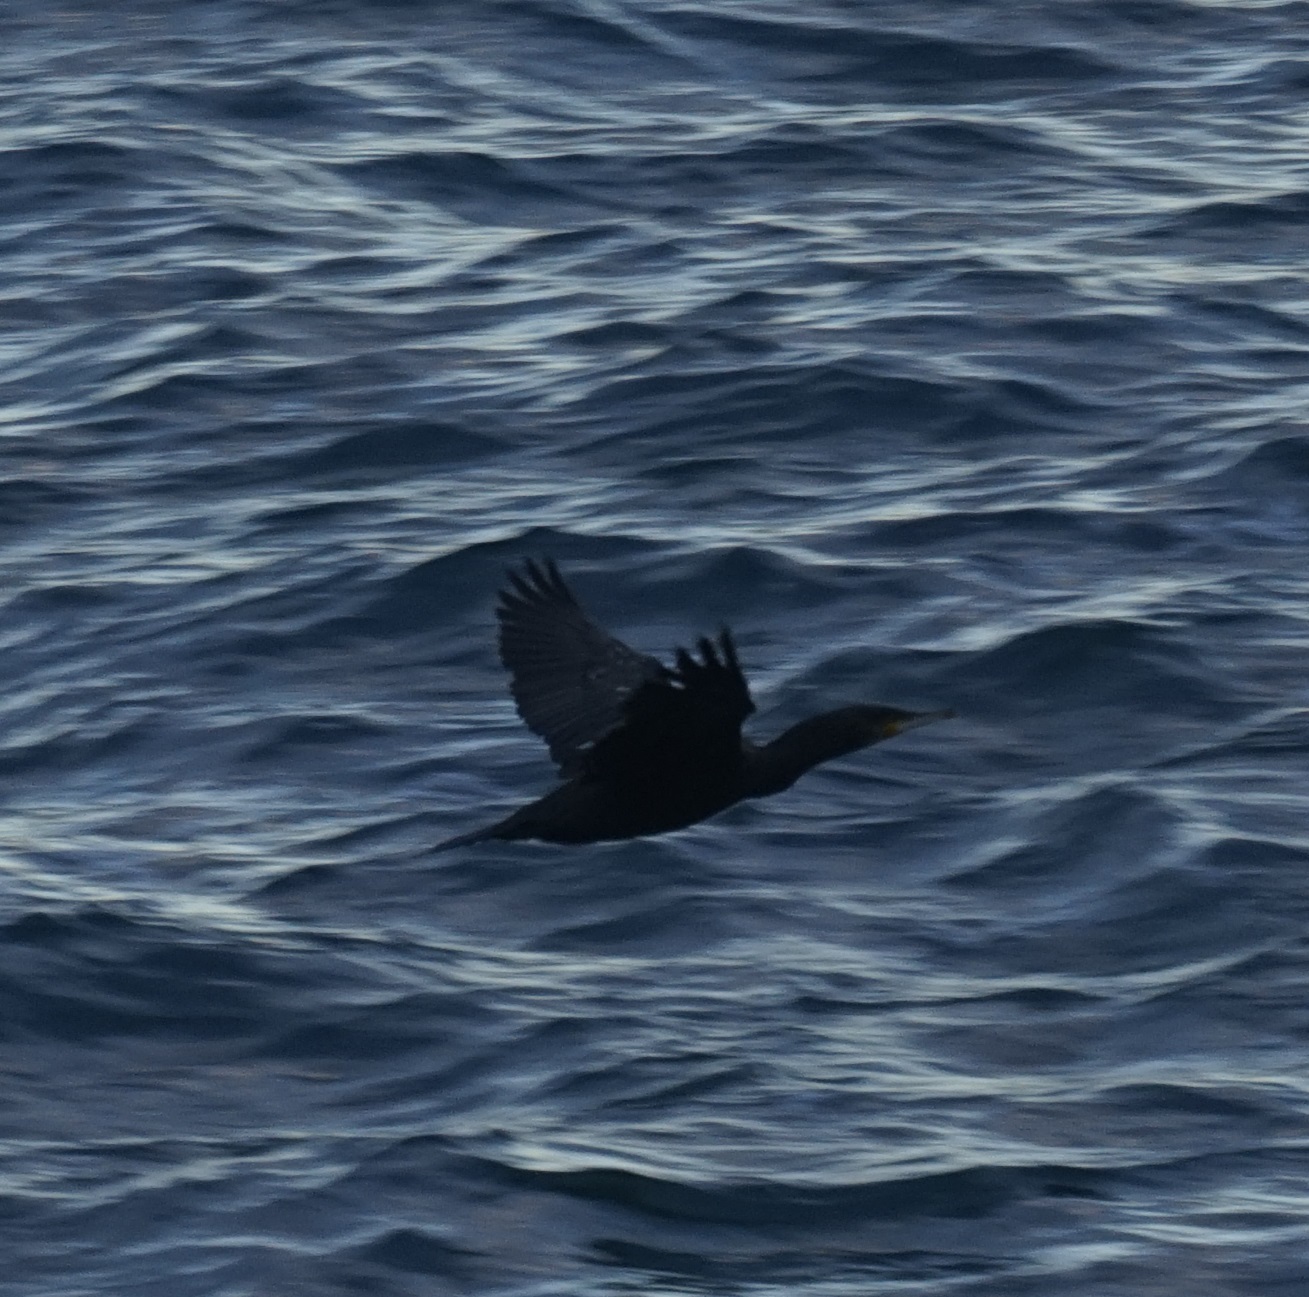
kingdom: Animalia
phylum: Chordata
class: Aves
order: Suliformes
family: Phalacrocoracidae
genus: Phalacrocorax
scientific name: Phalacrocorax carbo
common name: Great cormorant
